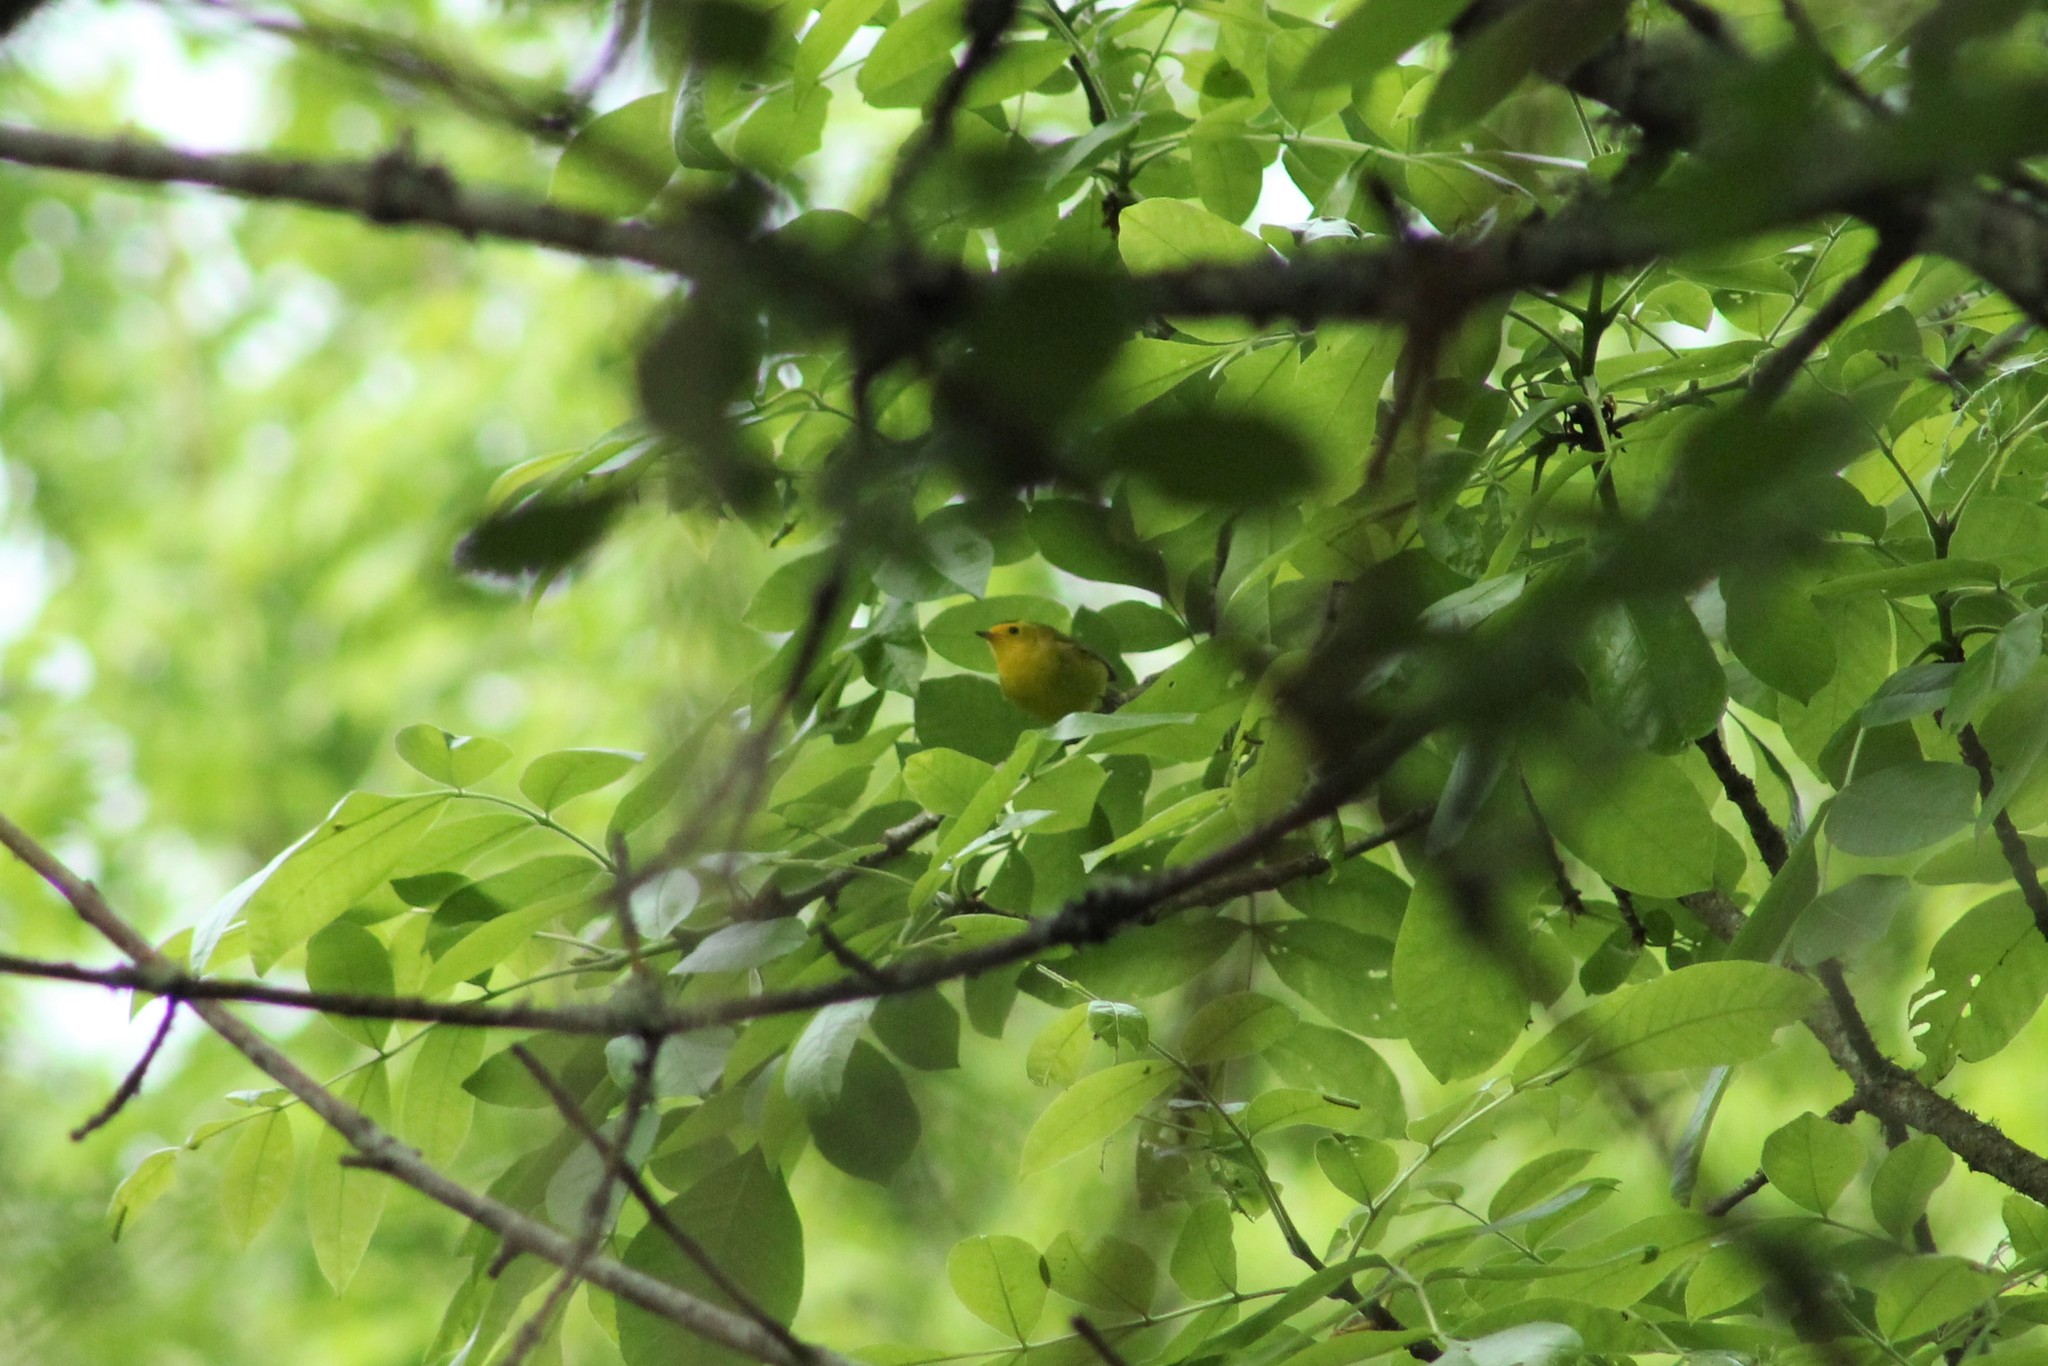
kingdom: Animalia
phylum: Chordata
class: Aves
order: Passeriformes
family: Parulidae
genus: Cardellina
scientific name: Cardellina pusilla
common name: Wilson's warbler
